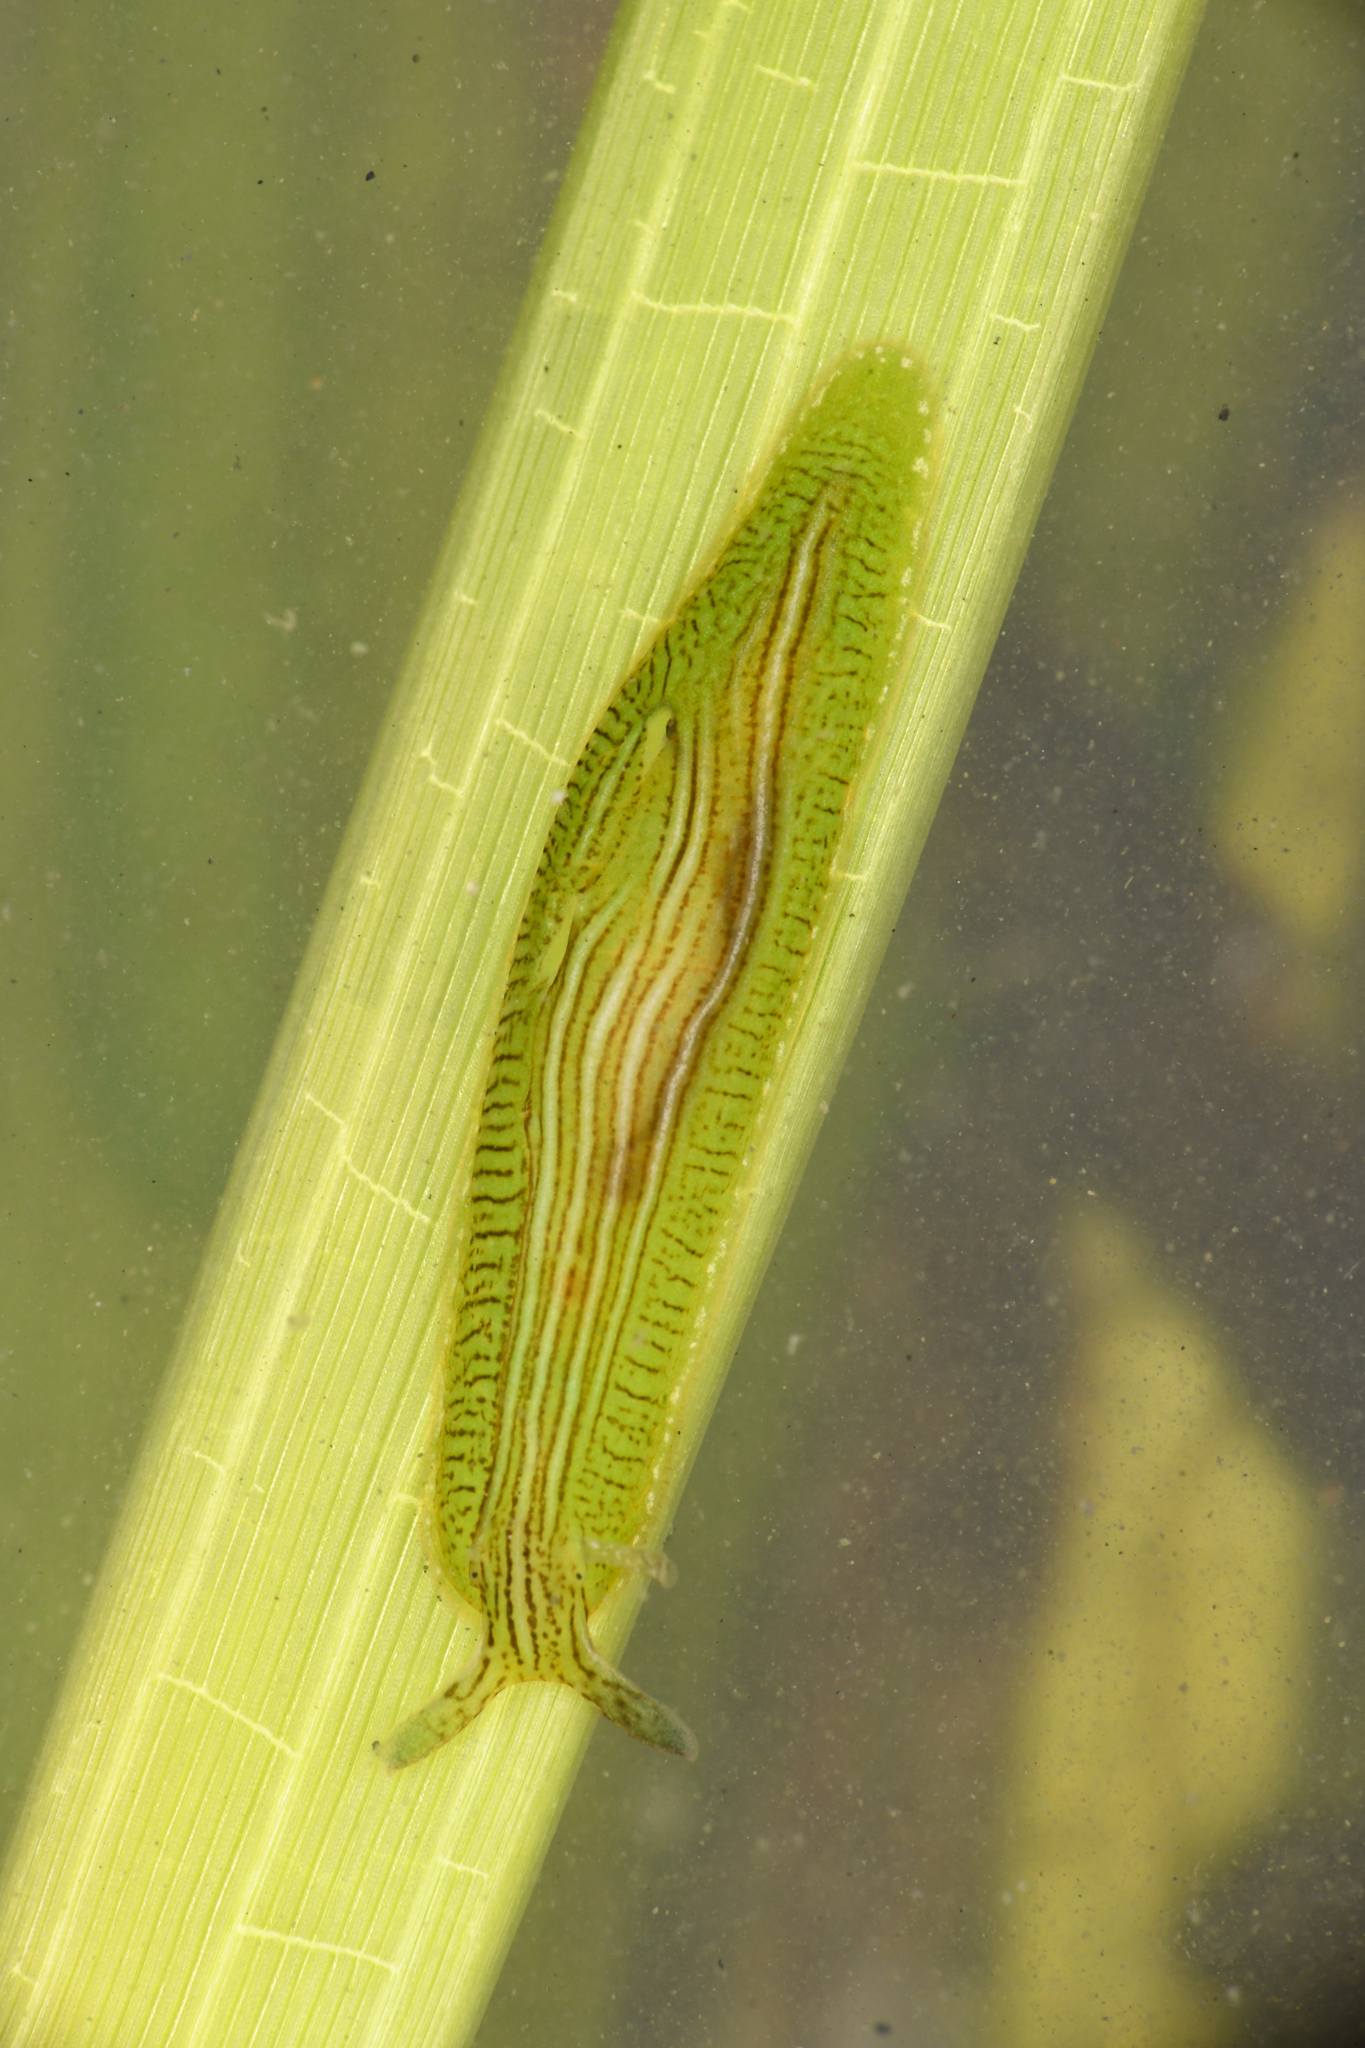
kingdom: Animalia
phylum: Mollusca
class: Gastropoda
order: Aplysiida
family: Aplysiidae
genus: Phyllaplysia
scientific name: Phyllaplysia taylori
